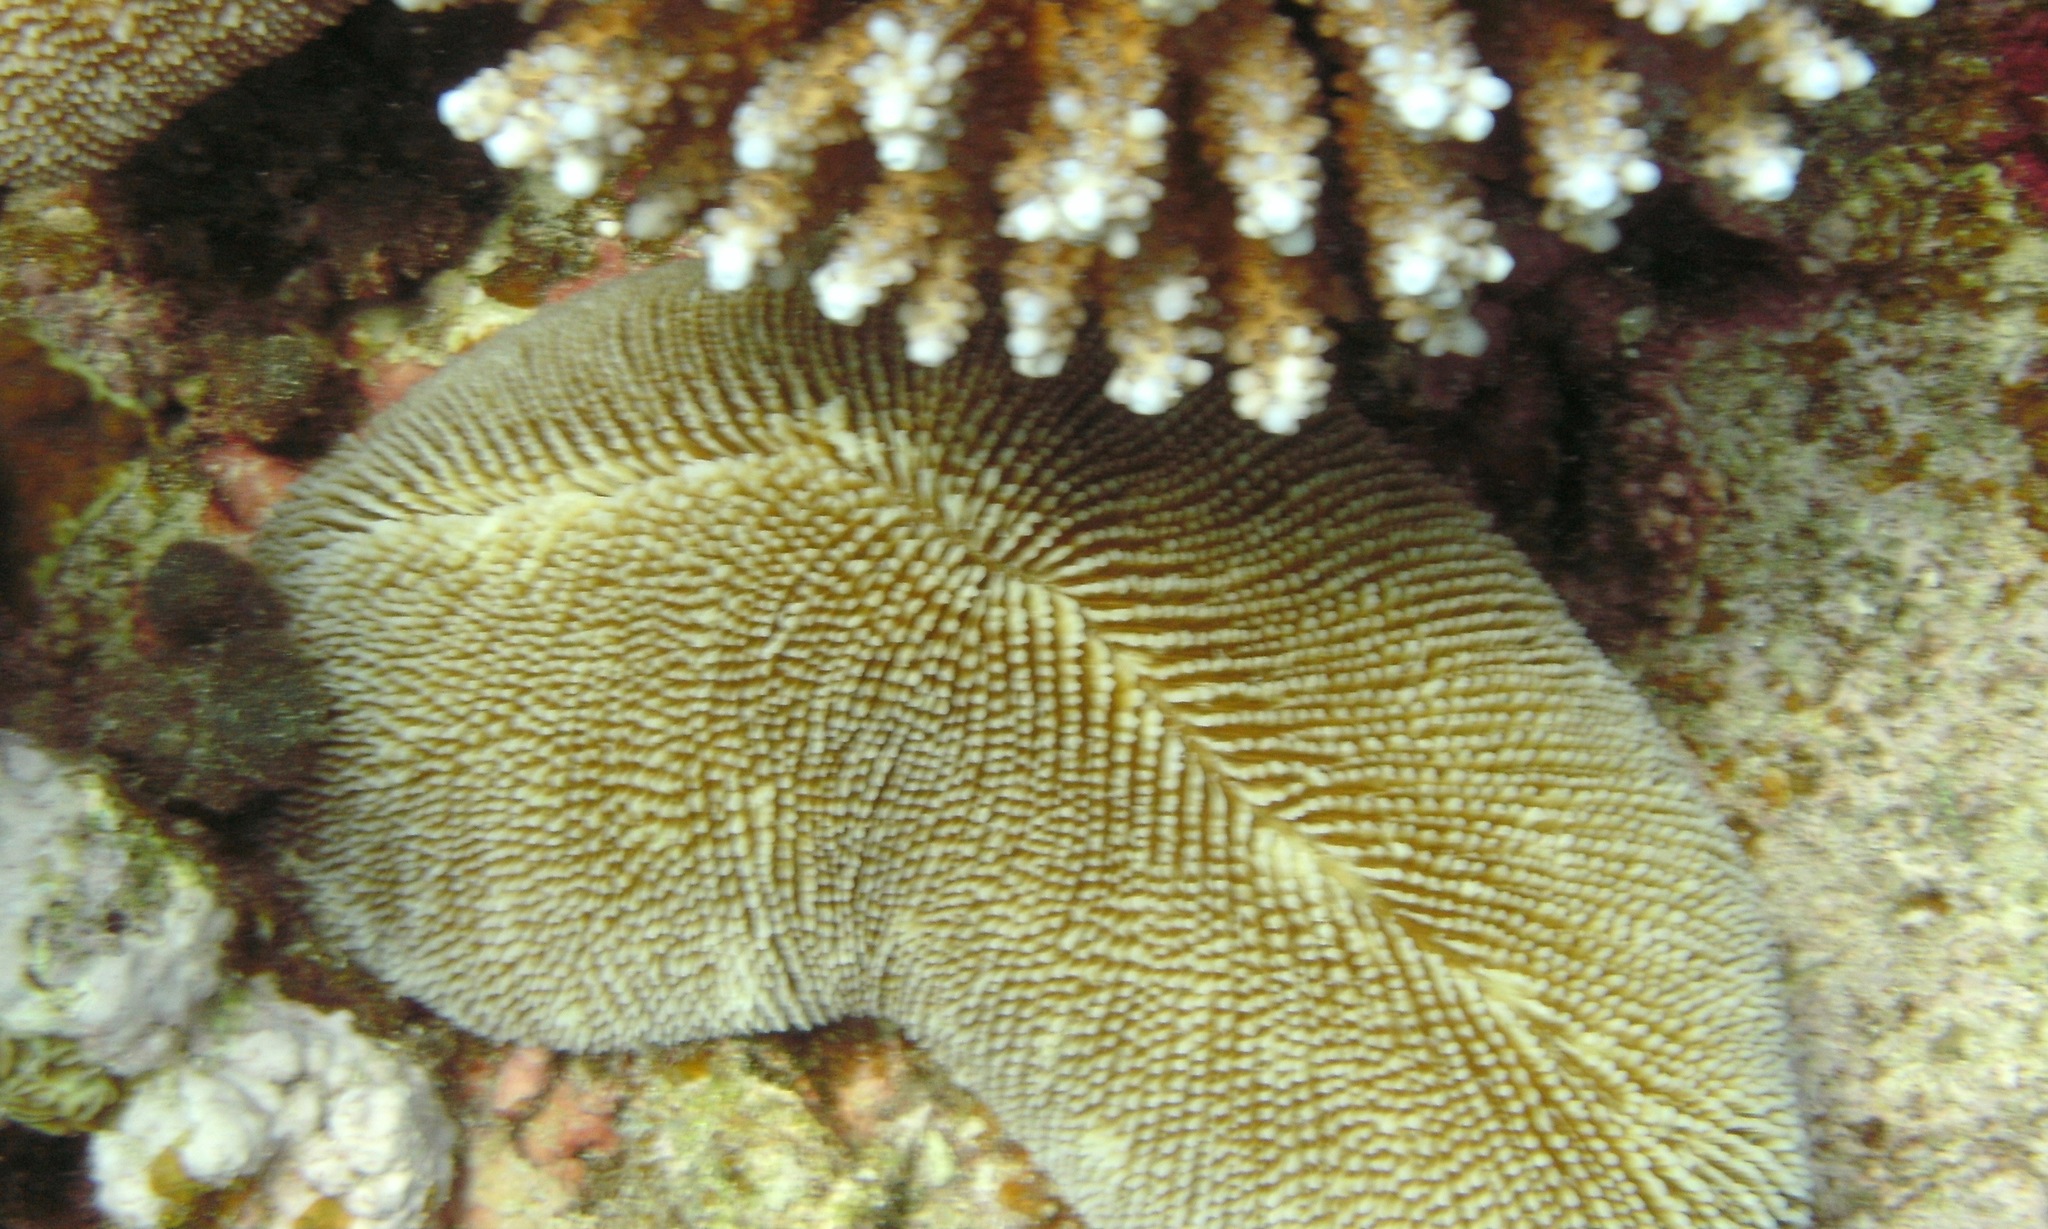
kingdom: Animalia
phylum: Cnidaria
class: Anthozoa
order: Scleractinia
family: Fungiidae
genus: Ctenactis
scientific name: Ctenactis crassa
